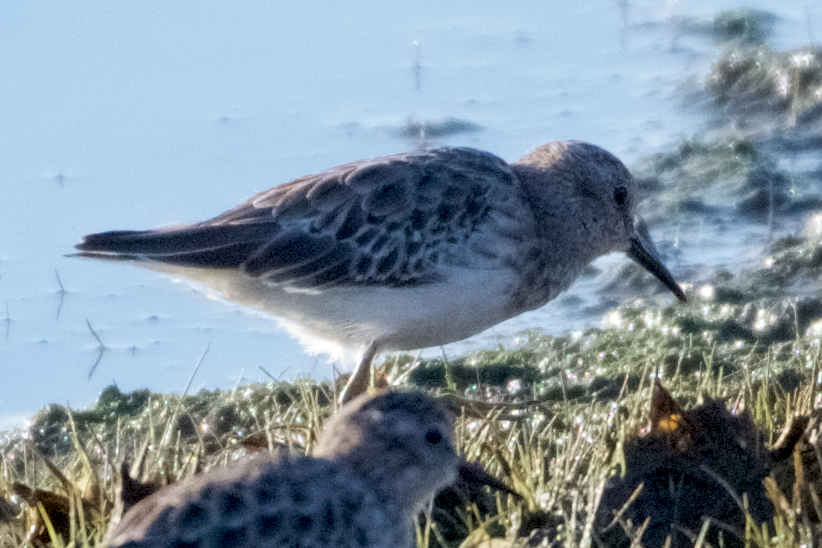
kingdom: Animalia
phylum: Chordata
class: Aves
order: Charadriiformes
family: Scolopacidae
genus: Calidris
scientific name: Calidris minutilla
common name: Least sandpiper
